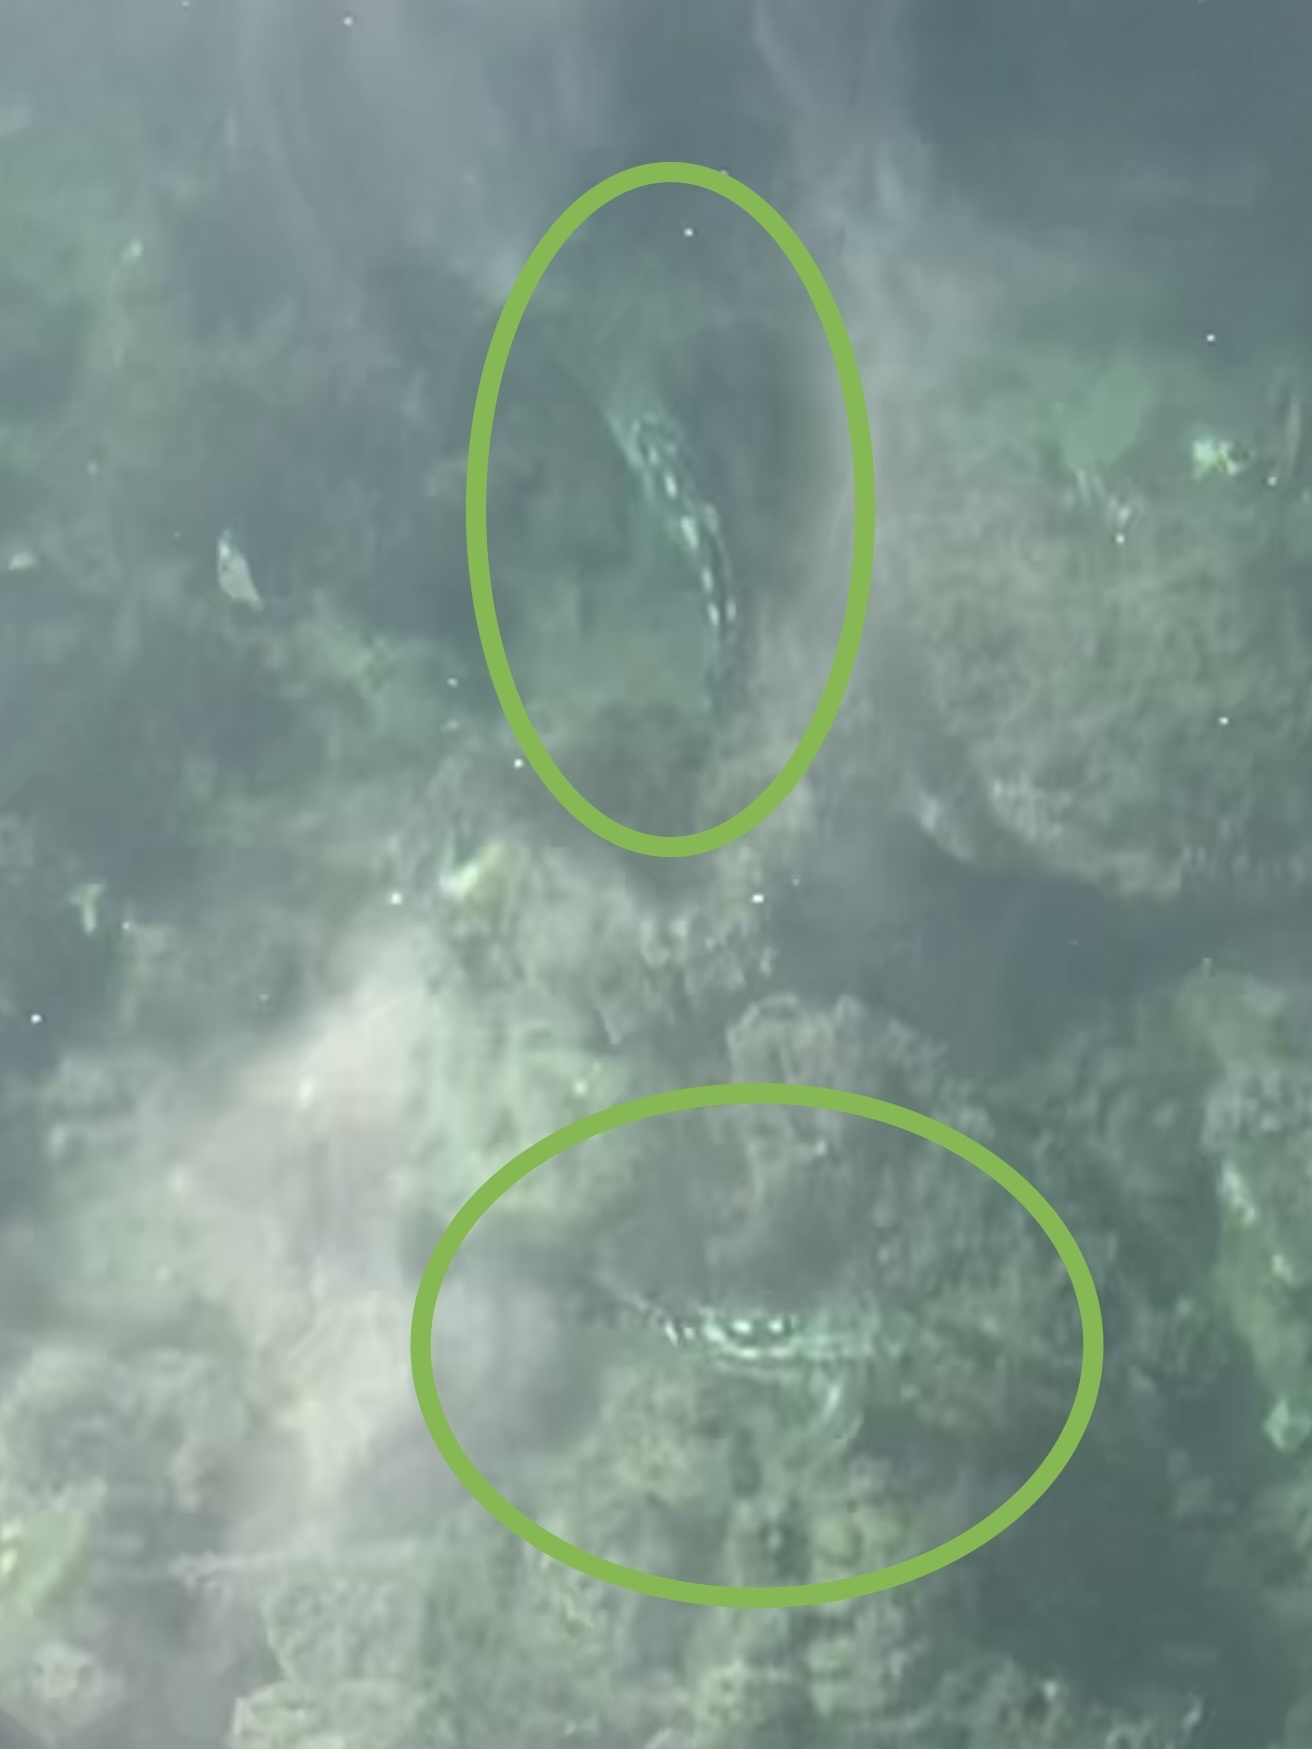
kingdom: Animalia
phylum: Chordata
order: Perciformes
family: Serranidae
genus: Paralabrax
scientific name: Paralabrax clathratus
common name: Kelp bass
